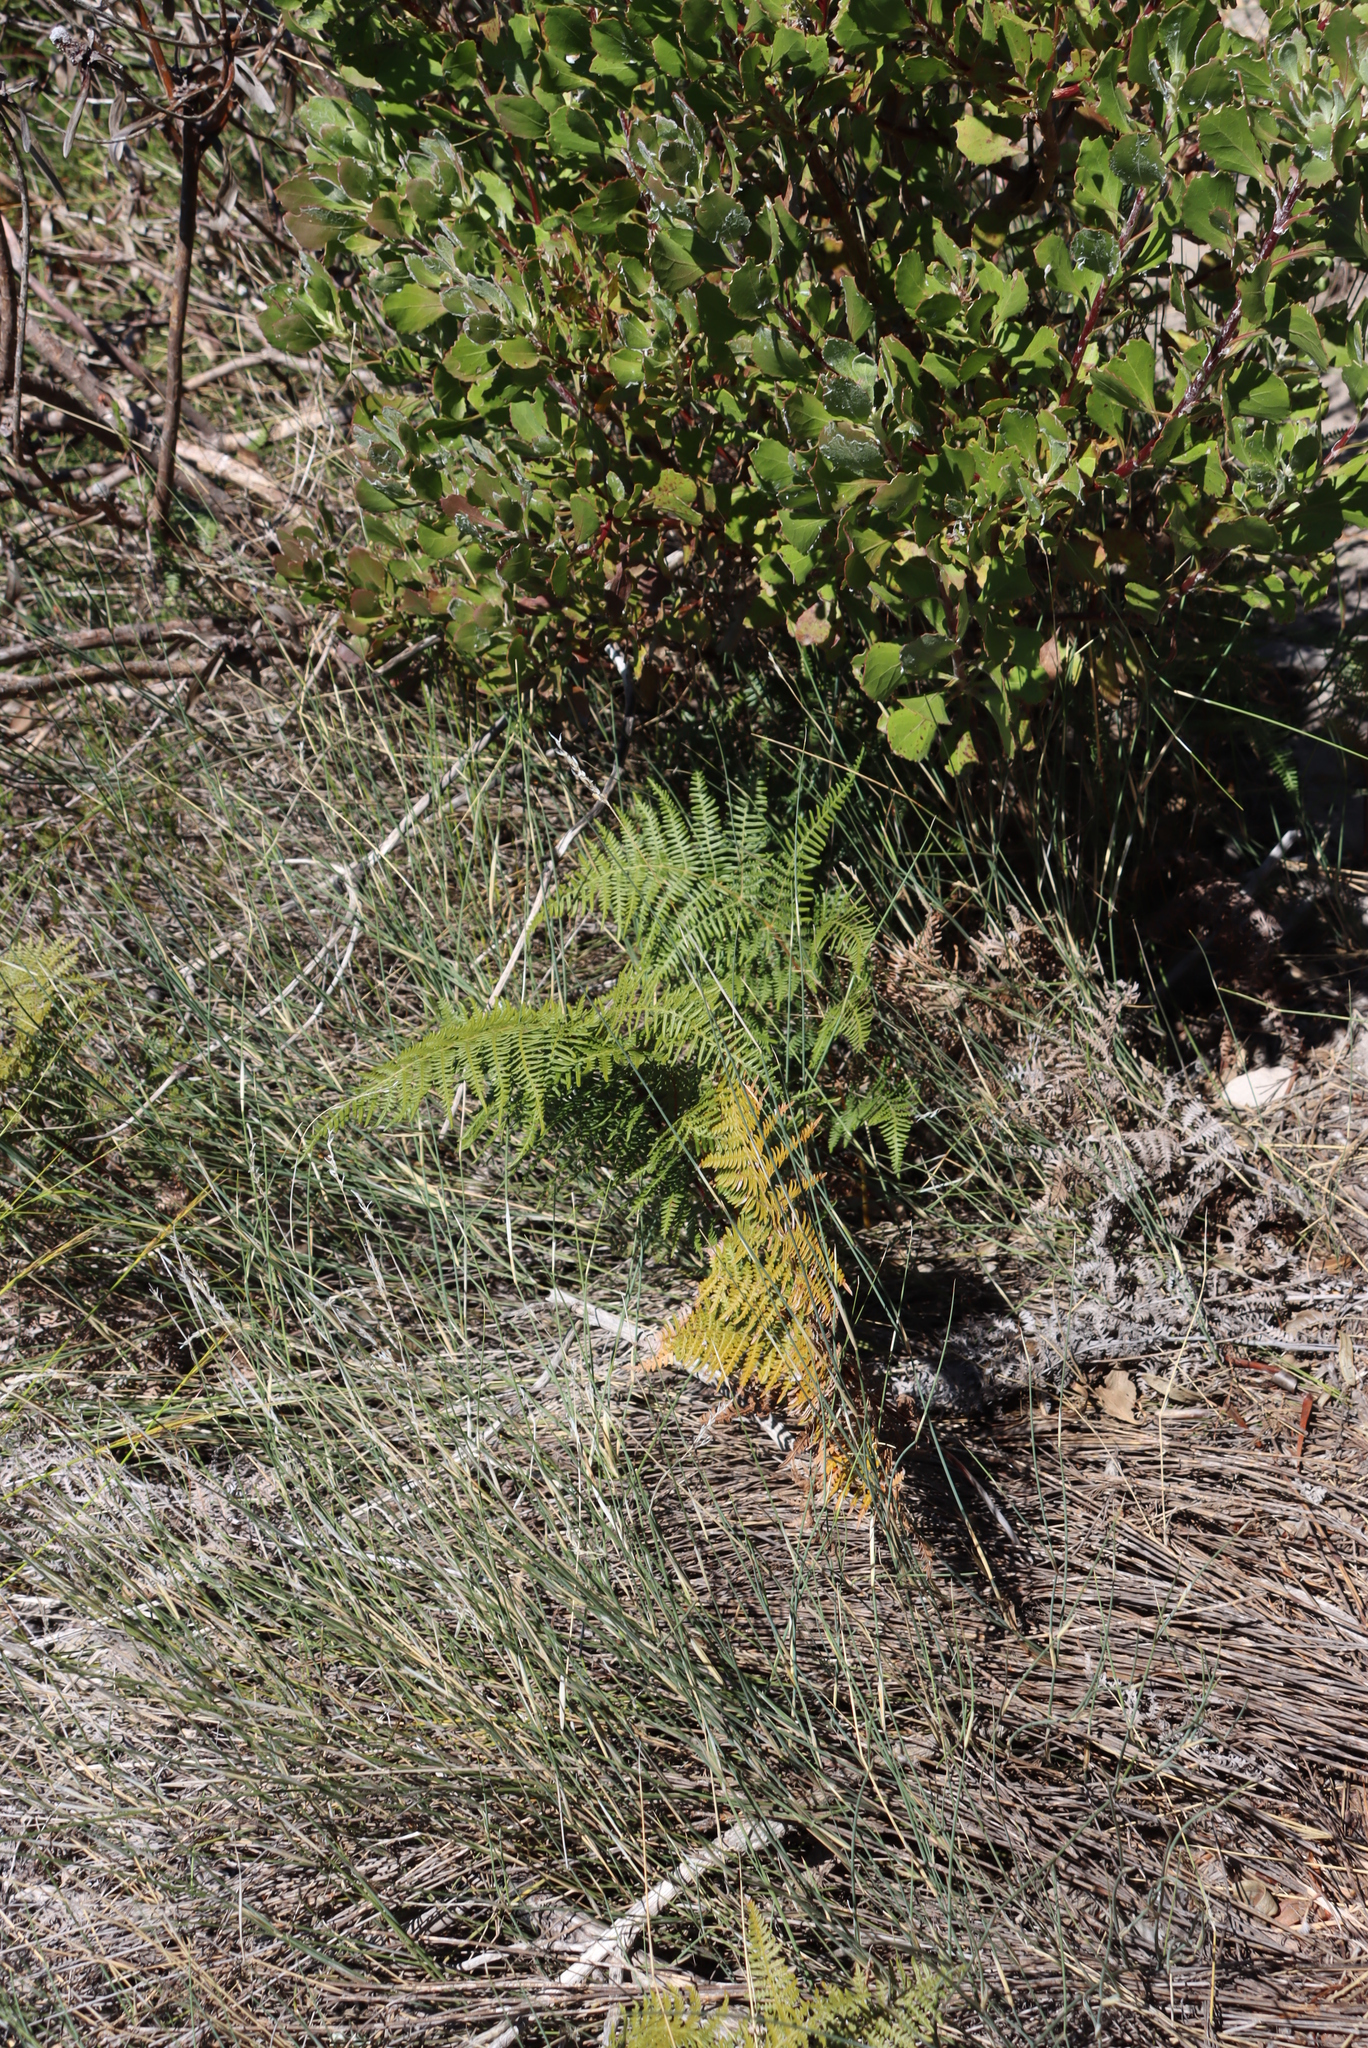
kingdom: Plantae
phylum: Tracheophyta
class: Polypodiopsida
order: Polypodiales
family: Dennstaedtiaceae
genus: Pteridium
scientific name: Pteridium aquilinum
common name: Bracken
